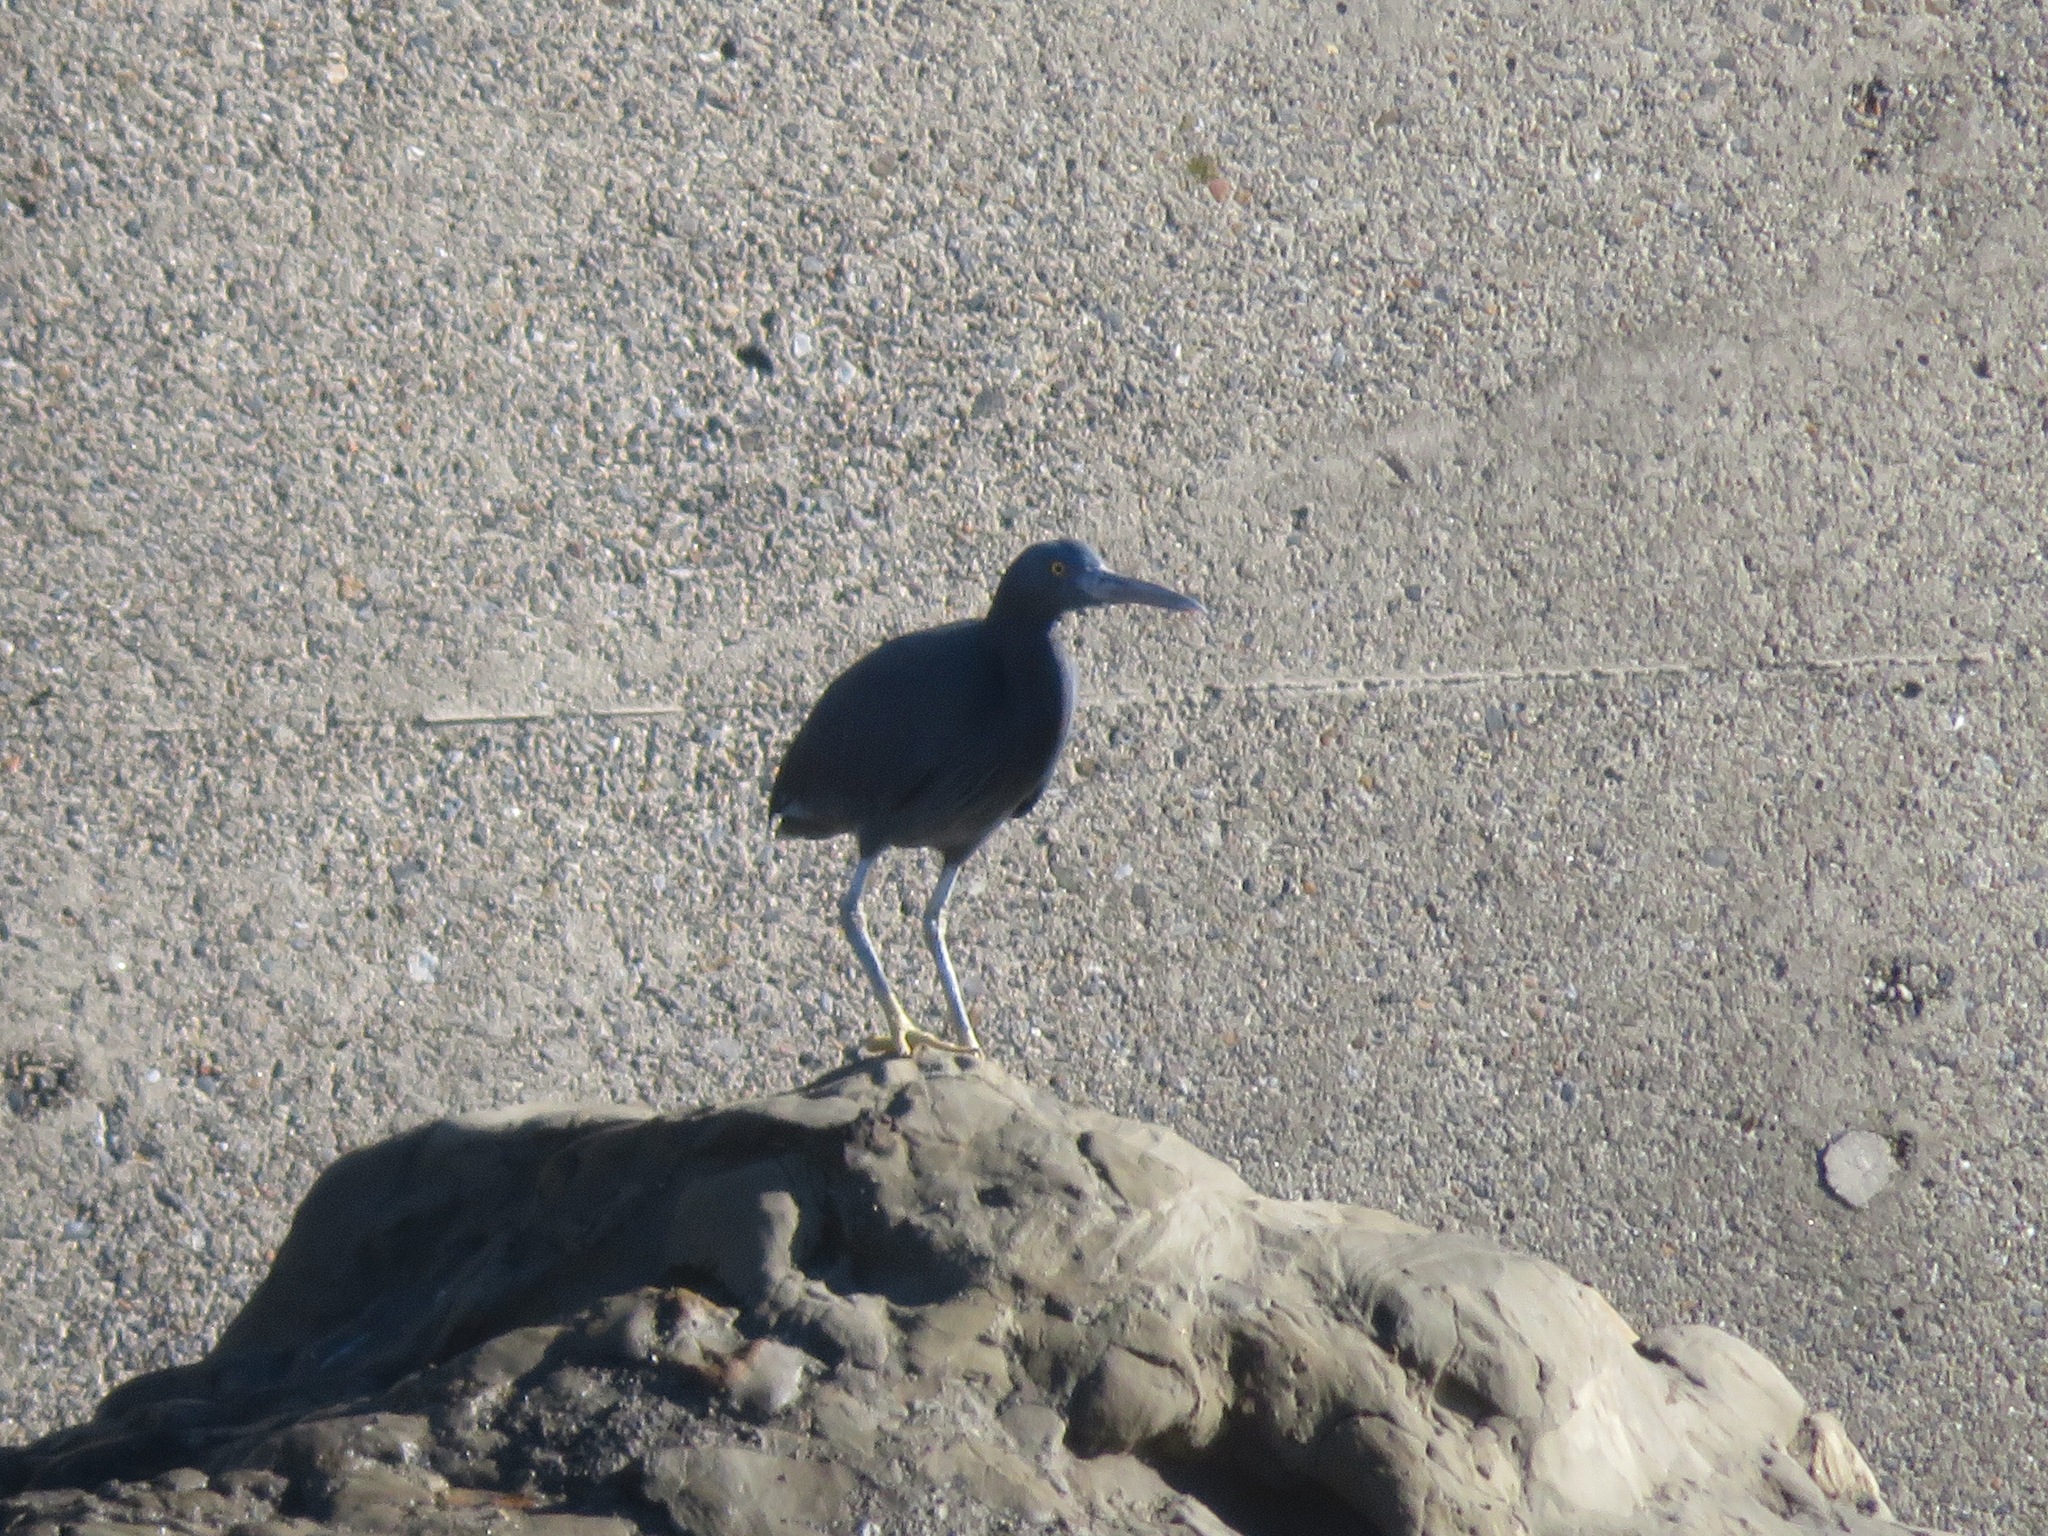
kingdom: Animalia
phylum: Chordata
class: Aves
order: Pelecaniformes
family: Ardeidae
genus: Egretta
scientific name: Egretta sacra
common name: Pacific reef heron
